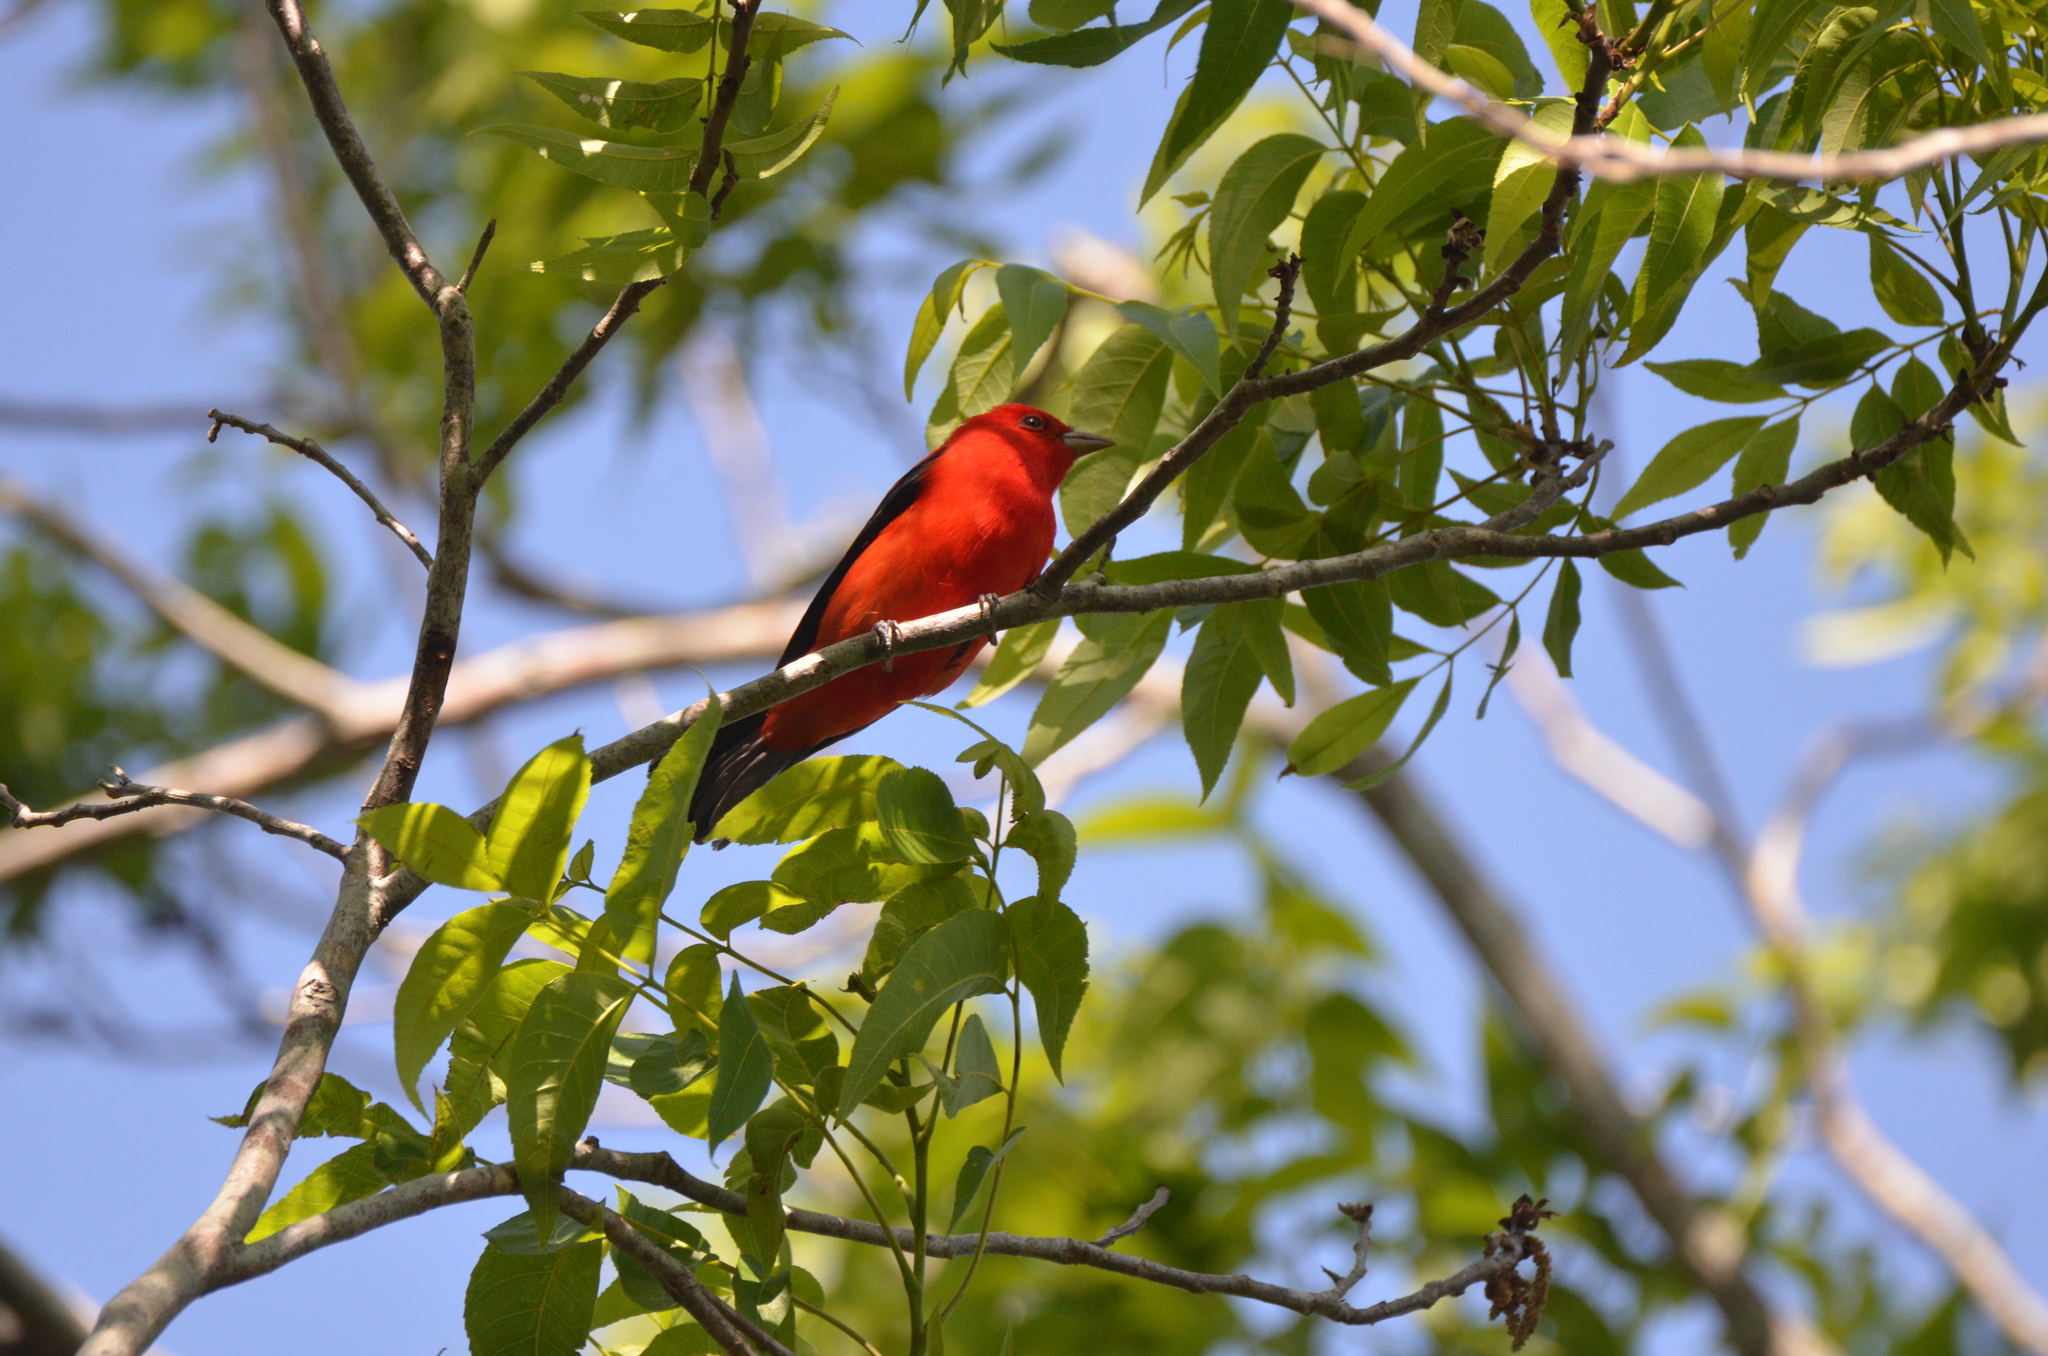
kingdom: Animalia
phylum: Chordata
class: Aves
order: Passeriformes
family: Cardinalidae
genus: Piranga
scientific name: Piranga olivacea
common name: Scarlet tanager
